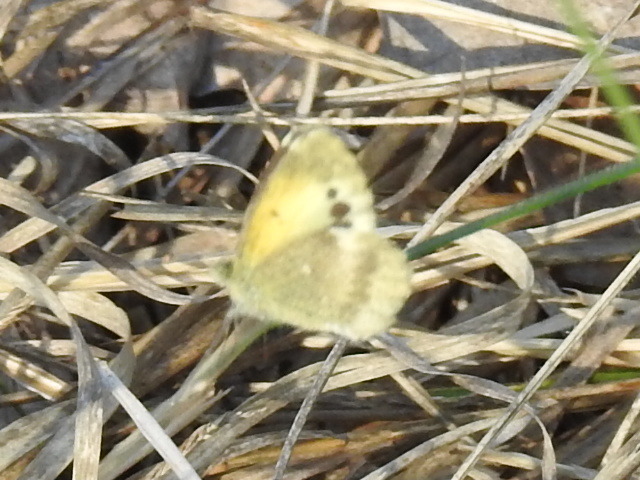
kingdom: Animalia
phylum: Arthropoda
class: Insecta
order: Lepidoptera
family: Pieridae
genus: Nathalis
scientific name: Nathalis iole
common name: Dainty sulphur
